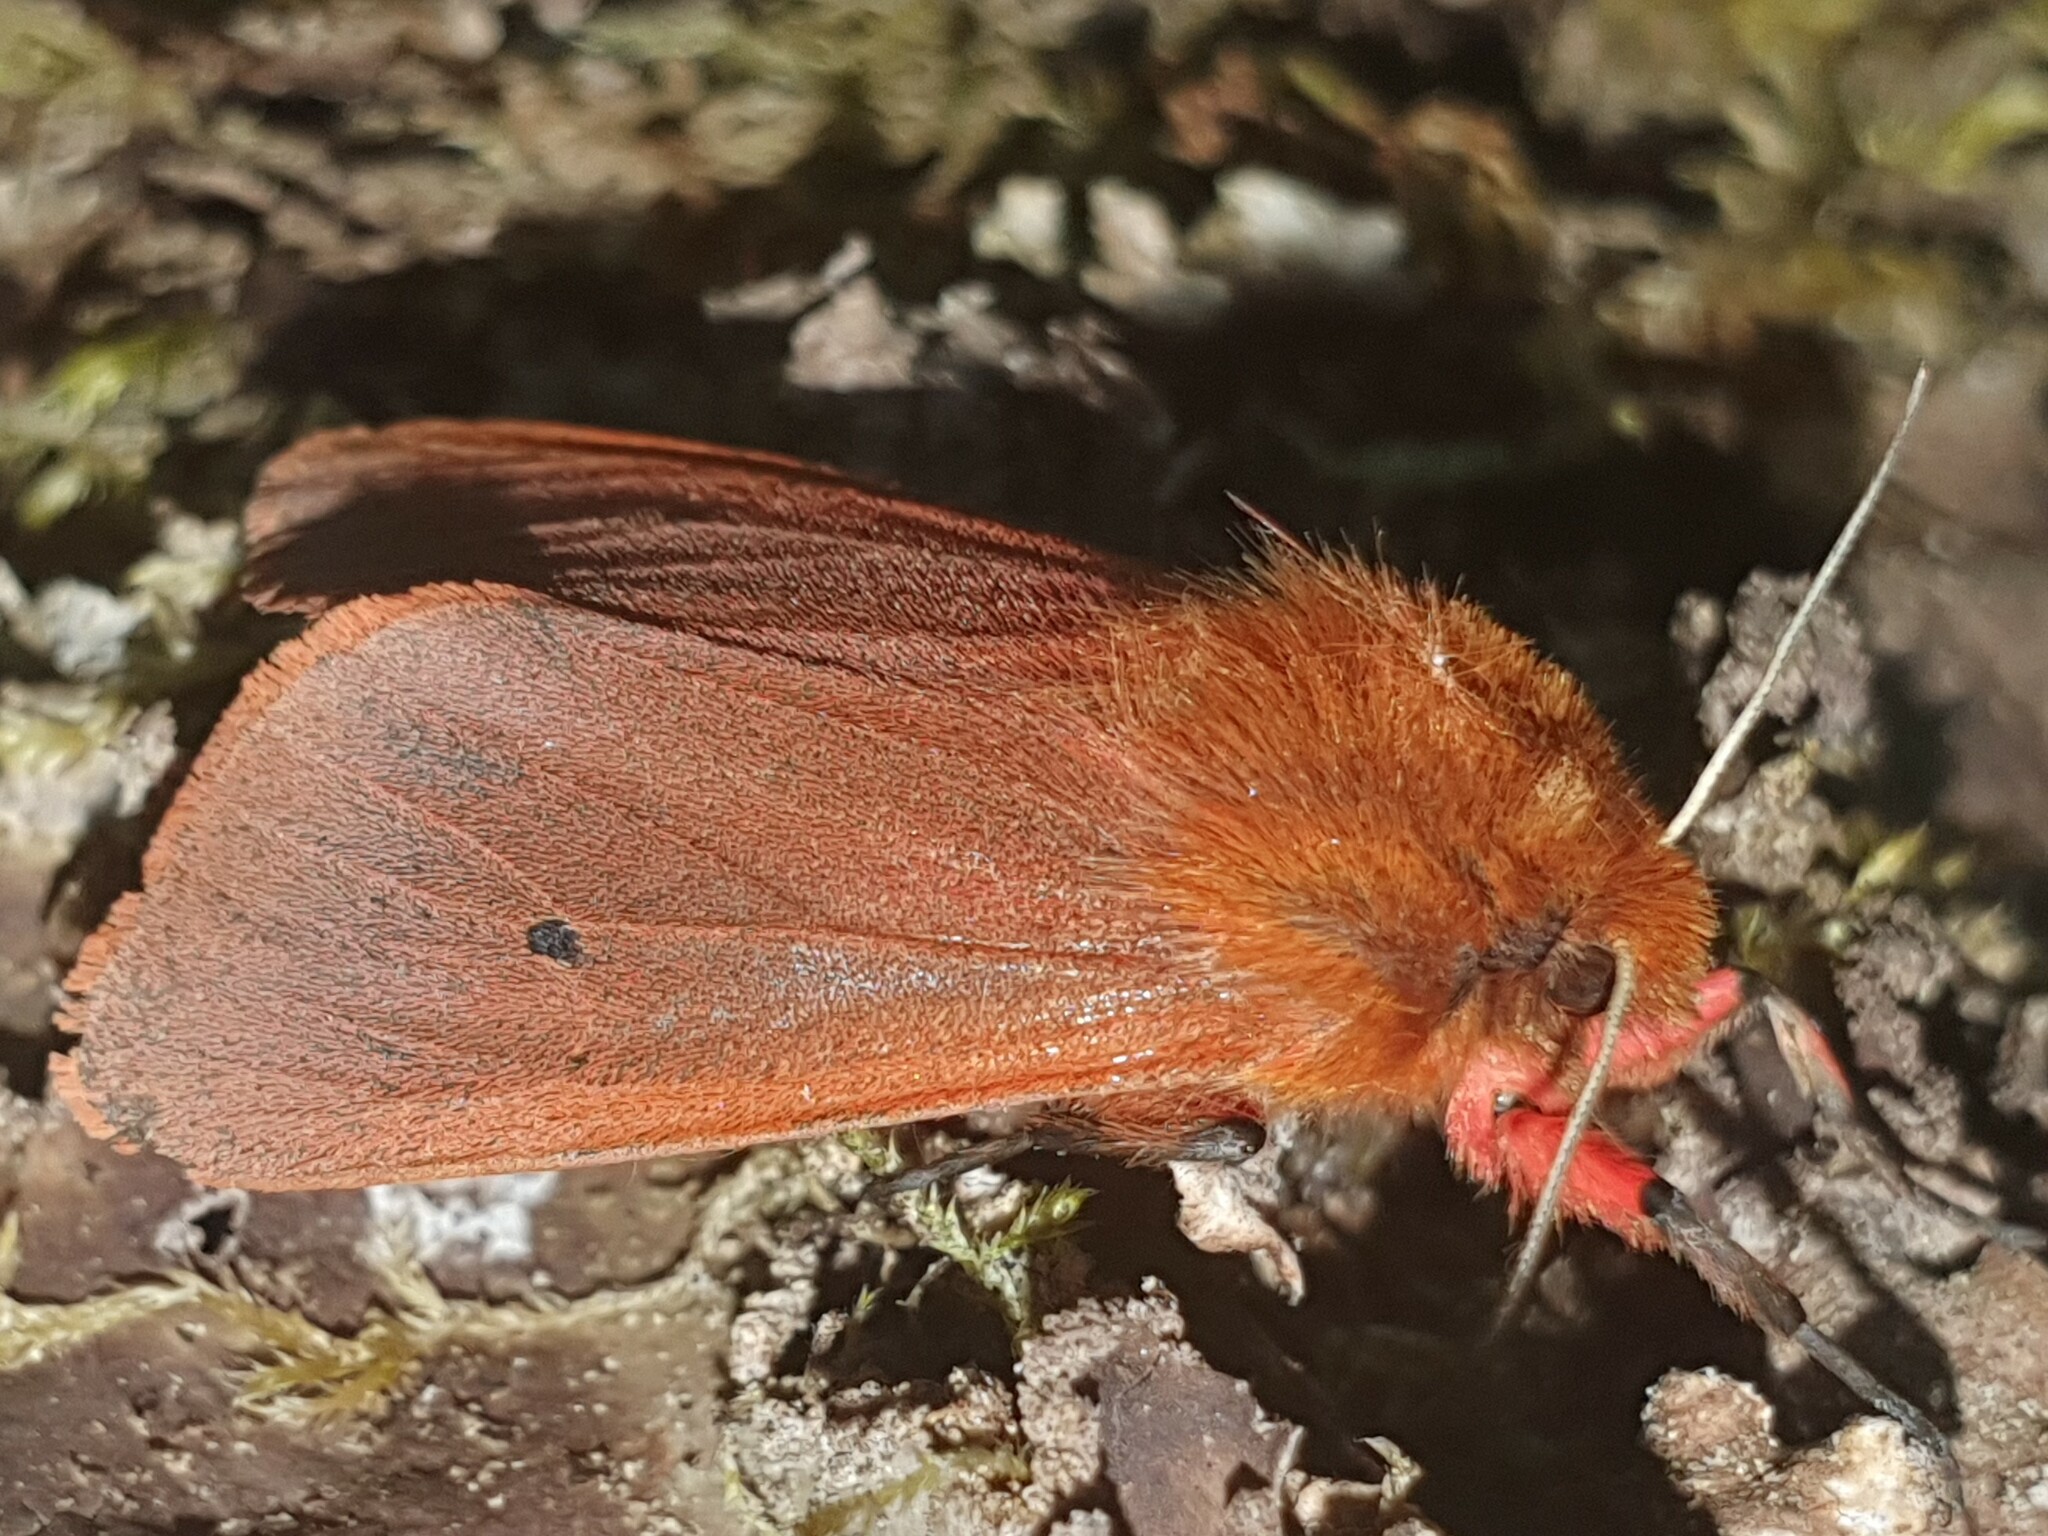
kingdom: Animalia
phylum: Arthropoda
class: Insecta
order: Lepidoptera
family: Erebidae
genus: Phragmatobia
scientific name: Phragmatobia fuliginosa
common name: Ruby tiger
